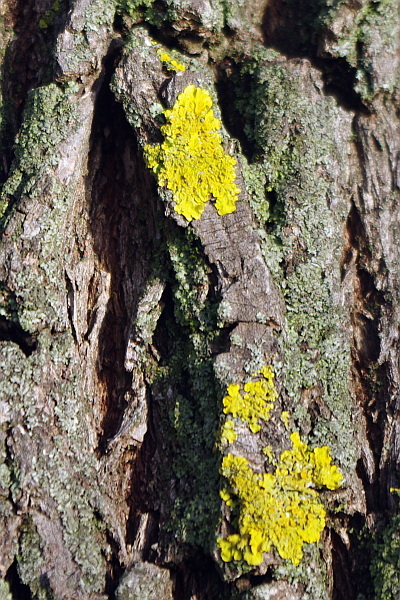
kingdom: Fungi
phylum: Ascomycota
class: Lecanoromycetes
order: Teloschistales
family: Teloschistaceae
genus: Xanthoria
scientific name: Xanthoria parietina
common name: Common orange lichen
